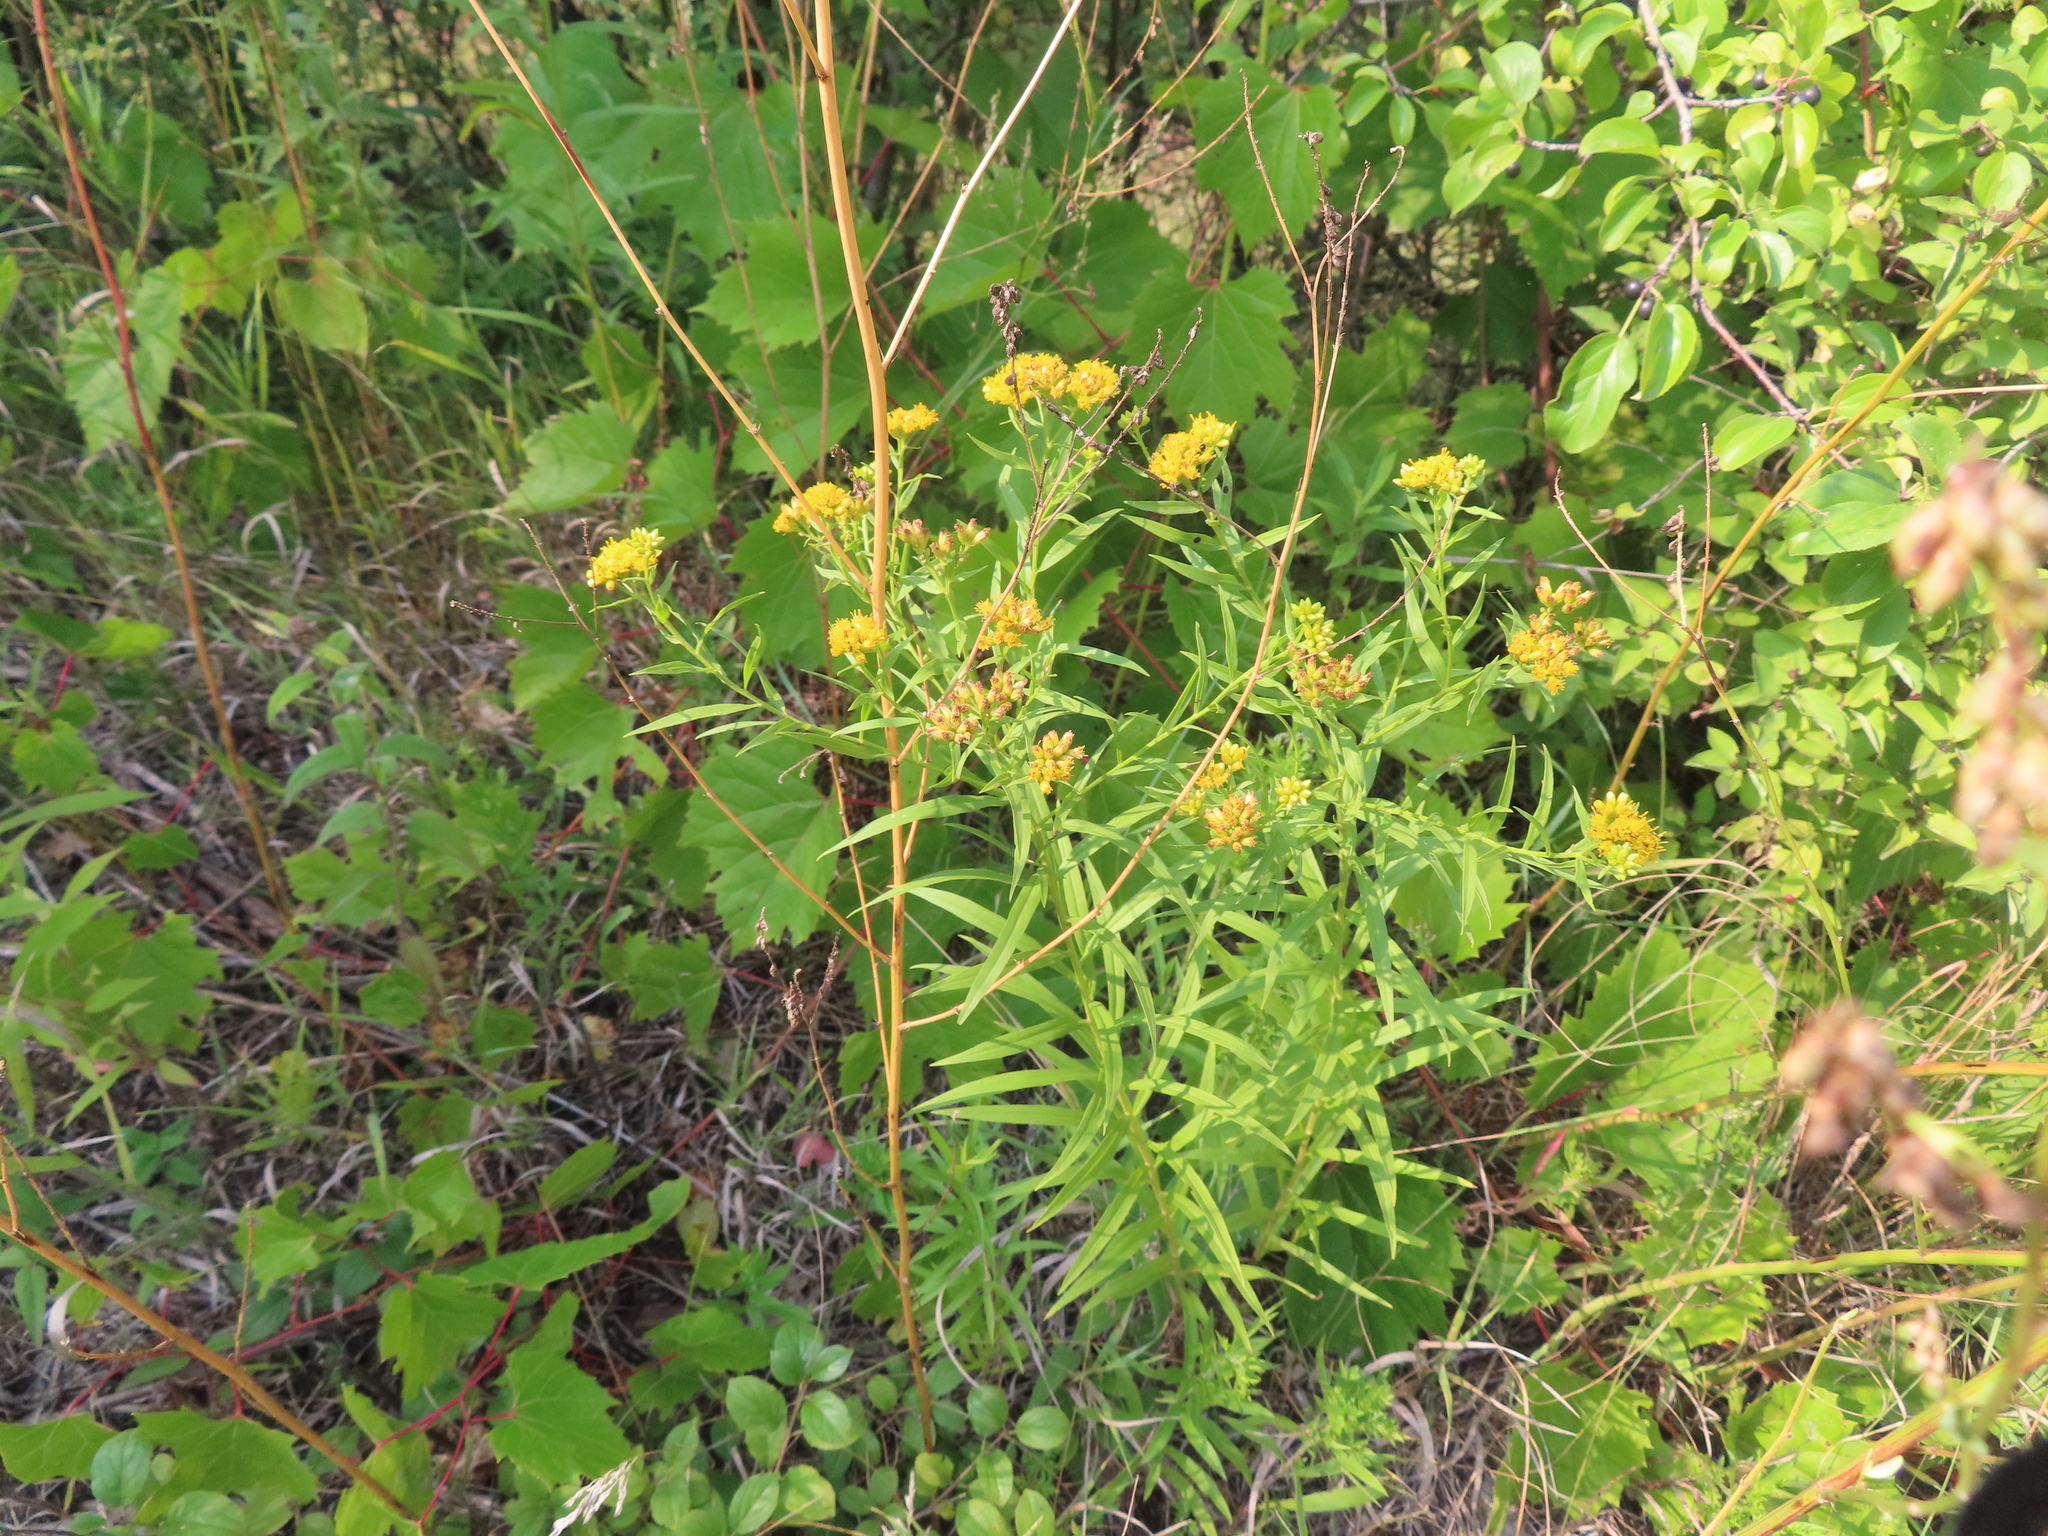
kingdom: Plantae
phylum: Tracheophyta
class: Magnoliopsida
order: Asterales
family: Asteraceae
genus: Euthamia
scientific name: Euthamia graminifolia
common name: Common goldentop
